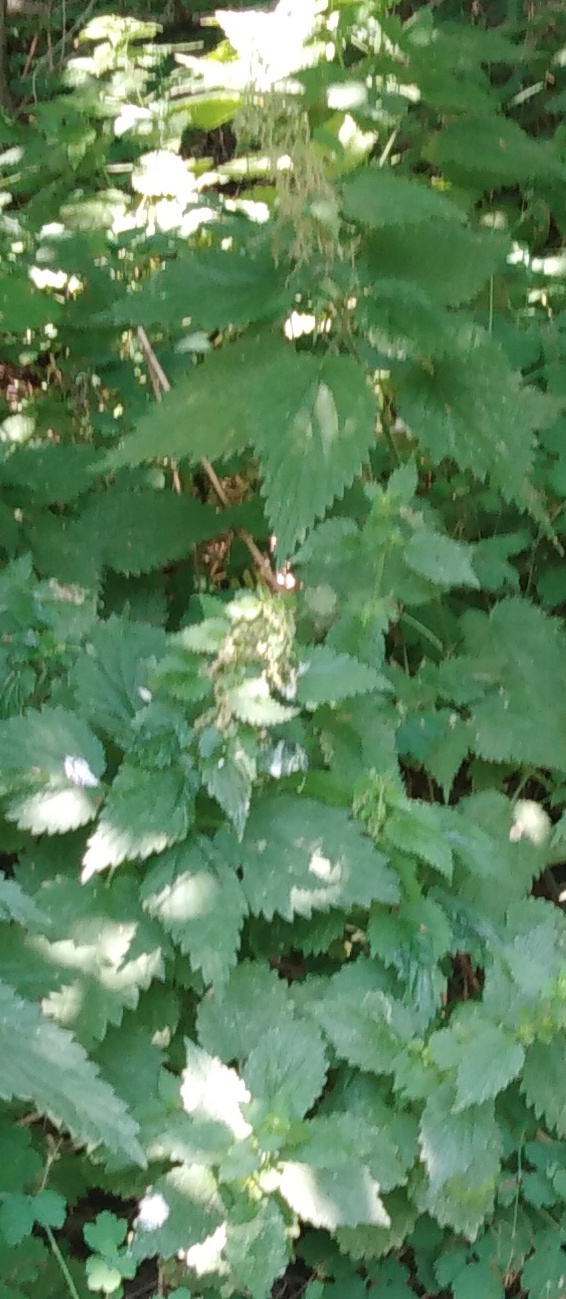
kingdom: Plantae
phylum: Tracheophyta
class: Magnoliopsida
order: Rosales
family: Urticaceae
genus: Urtica
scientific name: Urtica dioica
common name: Common nettle
